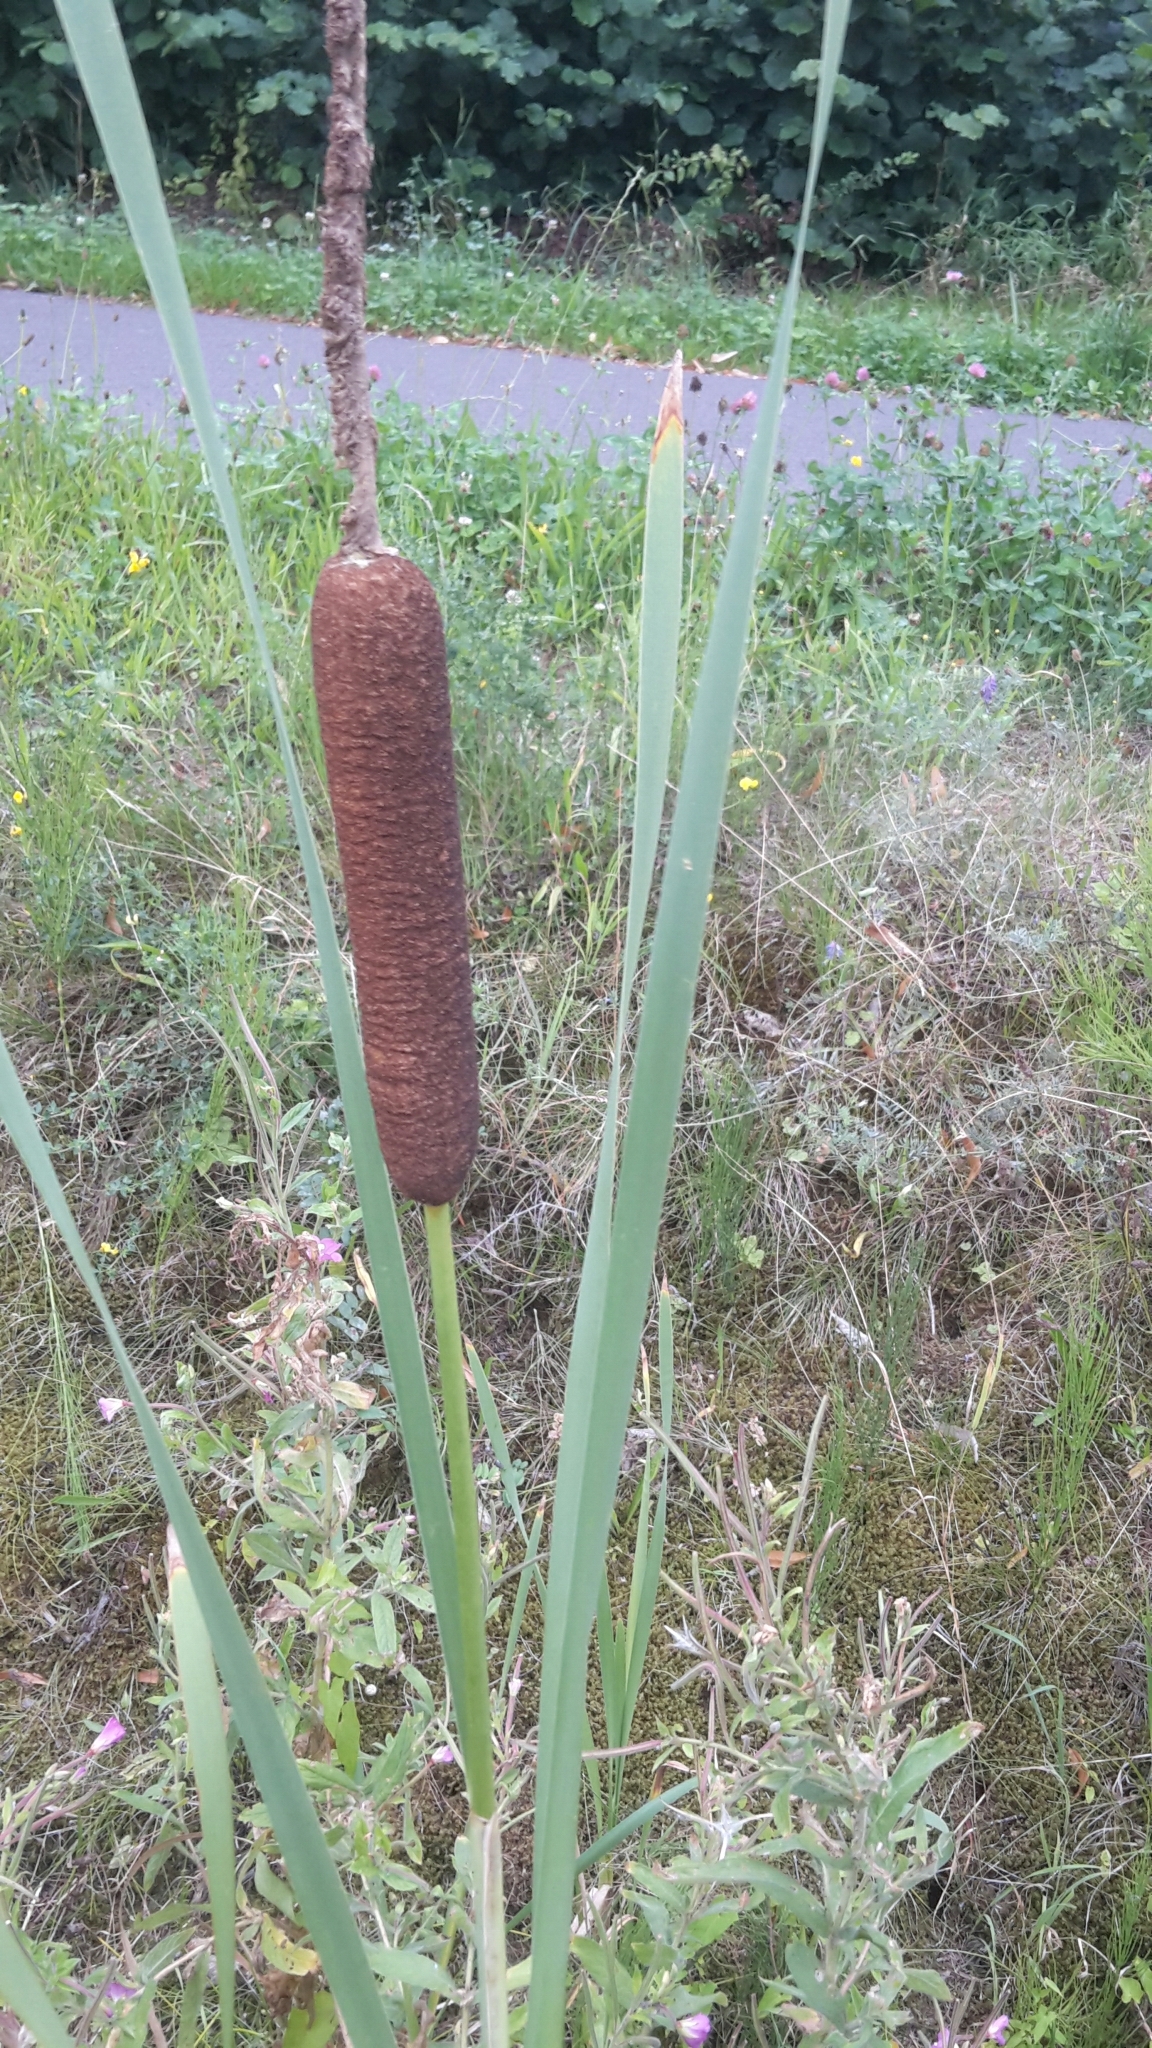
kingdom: Plantae
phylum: Tracheophyta
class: Liliopsida
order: Poales
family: Typhaceae
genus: Typha
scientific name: Typha latifolia
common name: Broadleaf cattail
